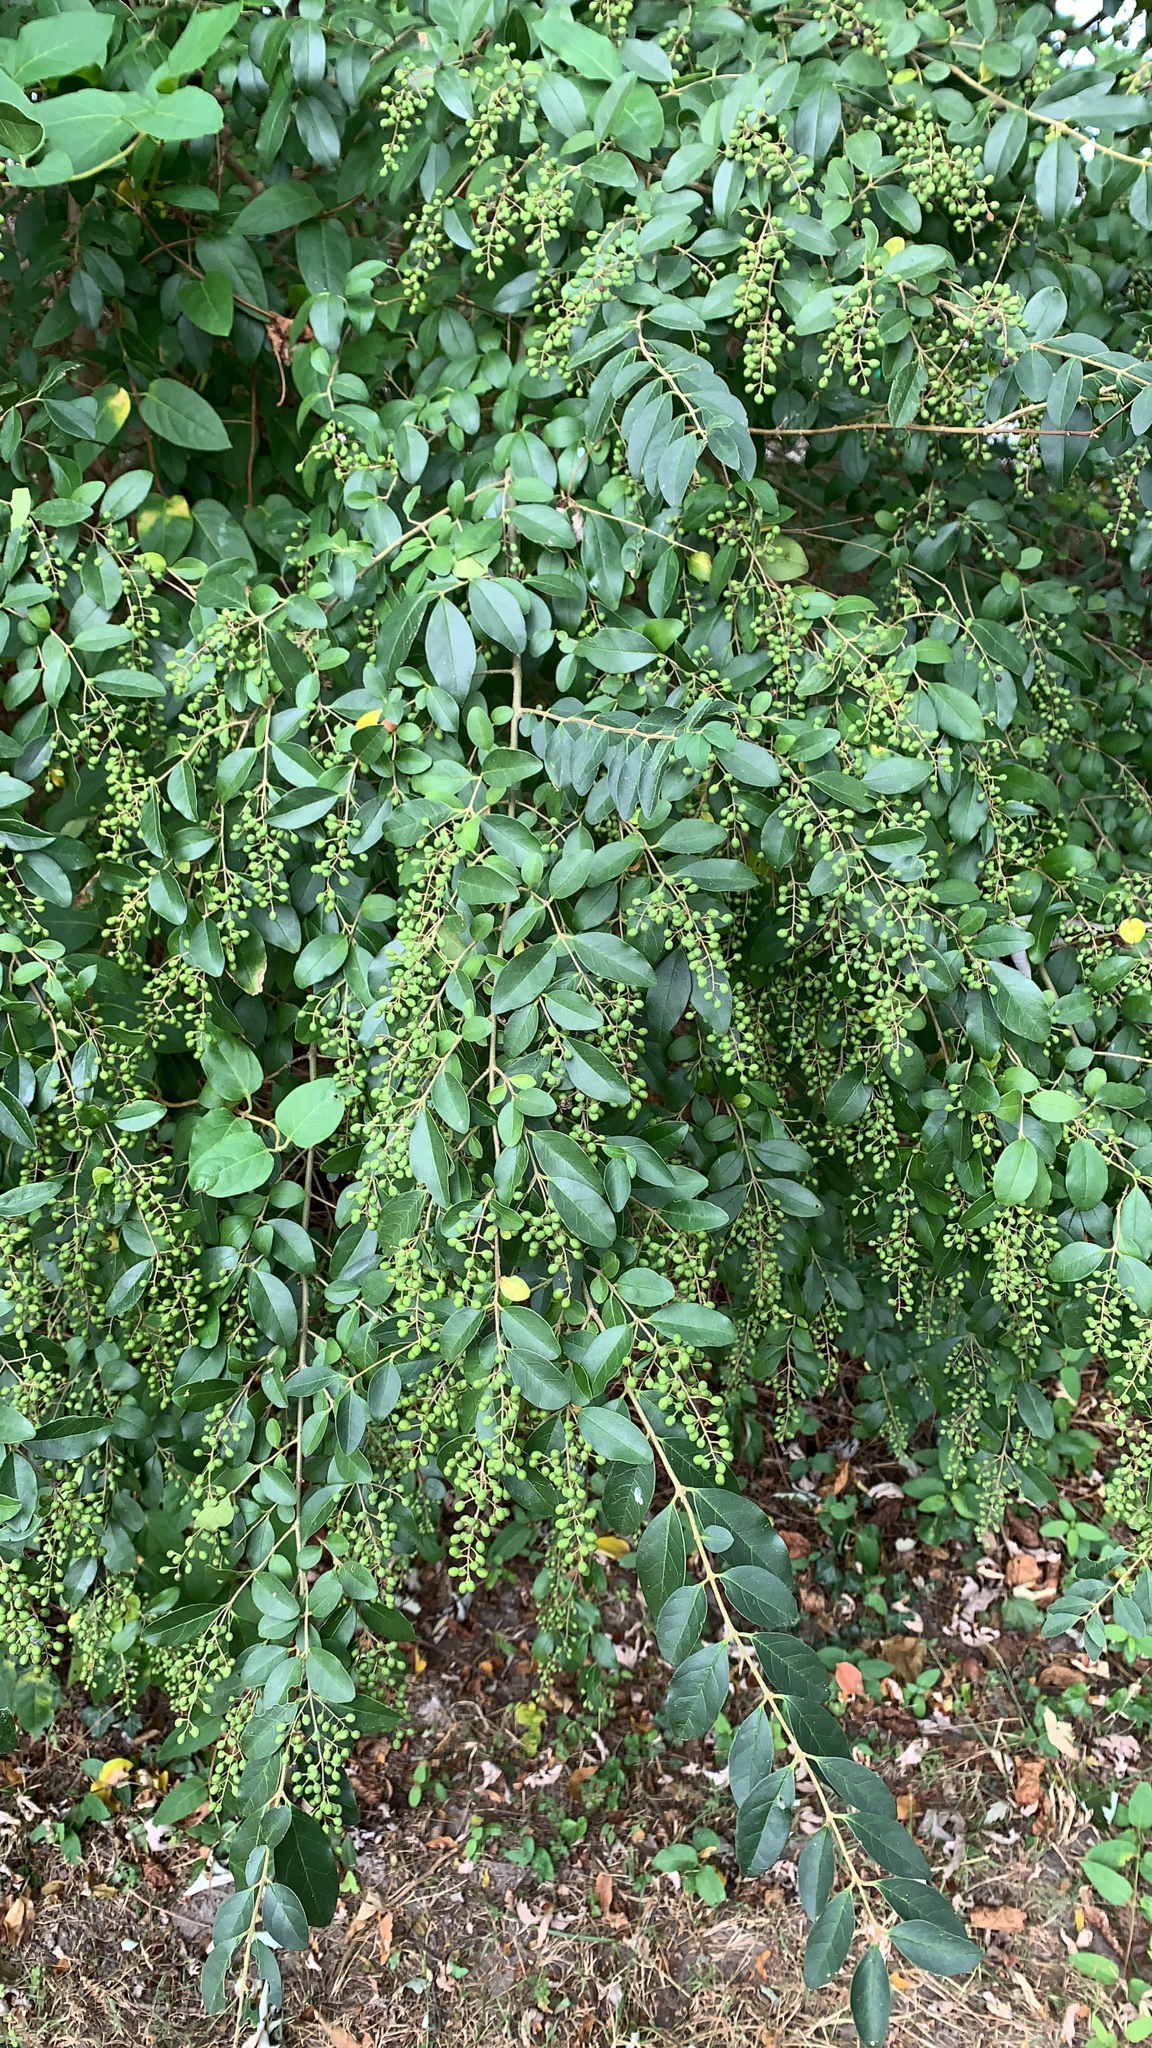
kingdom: Plantae
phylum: Tracheophyta
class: Magnoliopsida
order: Lamiales
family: Oleaceae
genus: Ligustrum
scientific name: Ligustrum sinense
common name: Chinese privet
